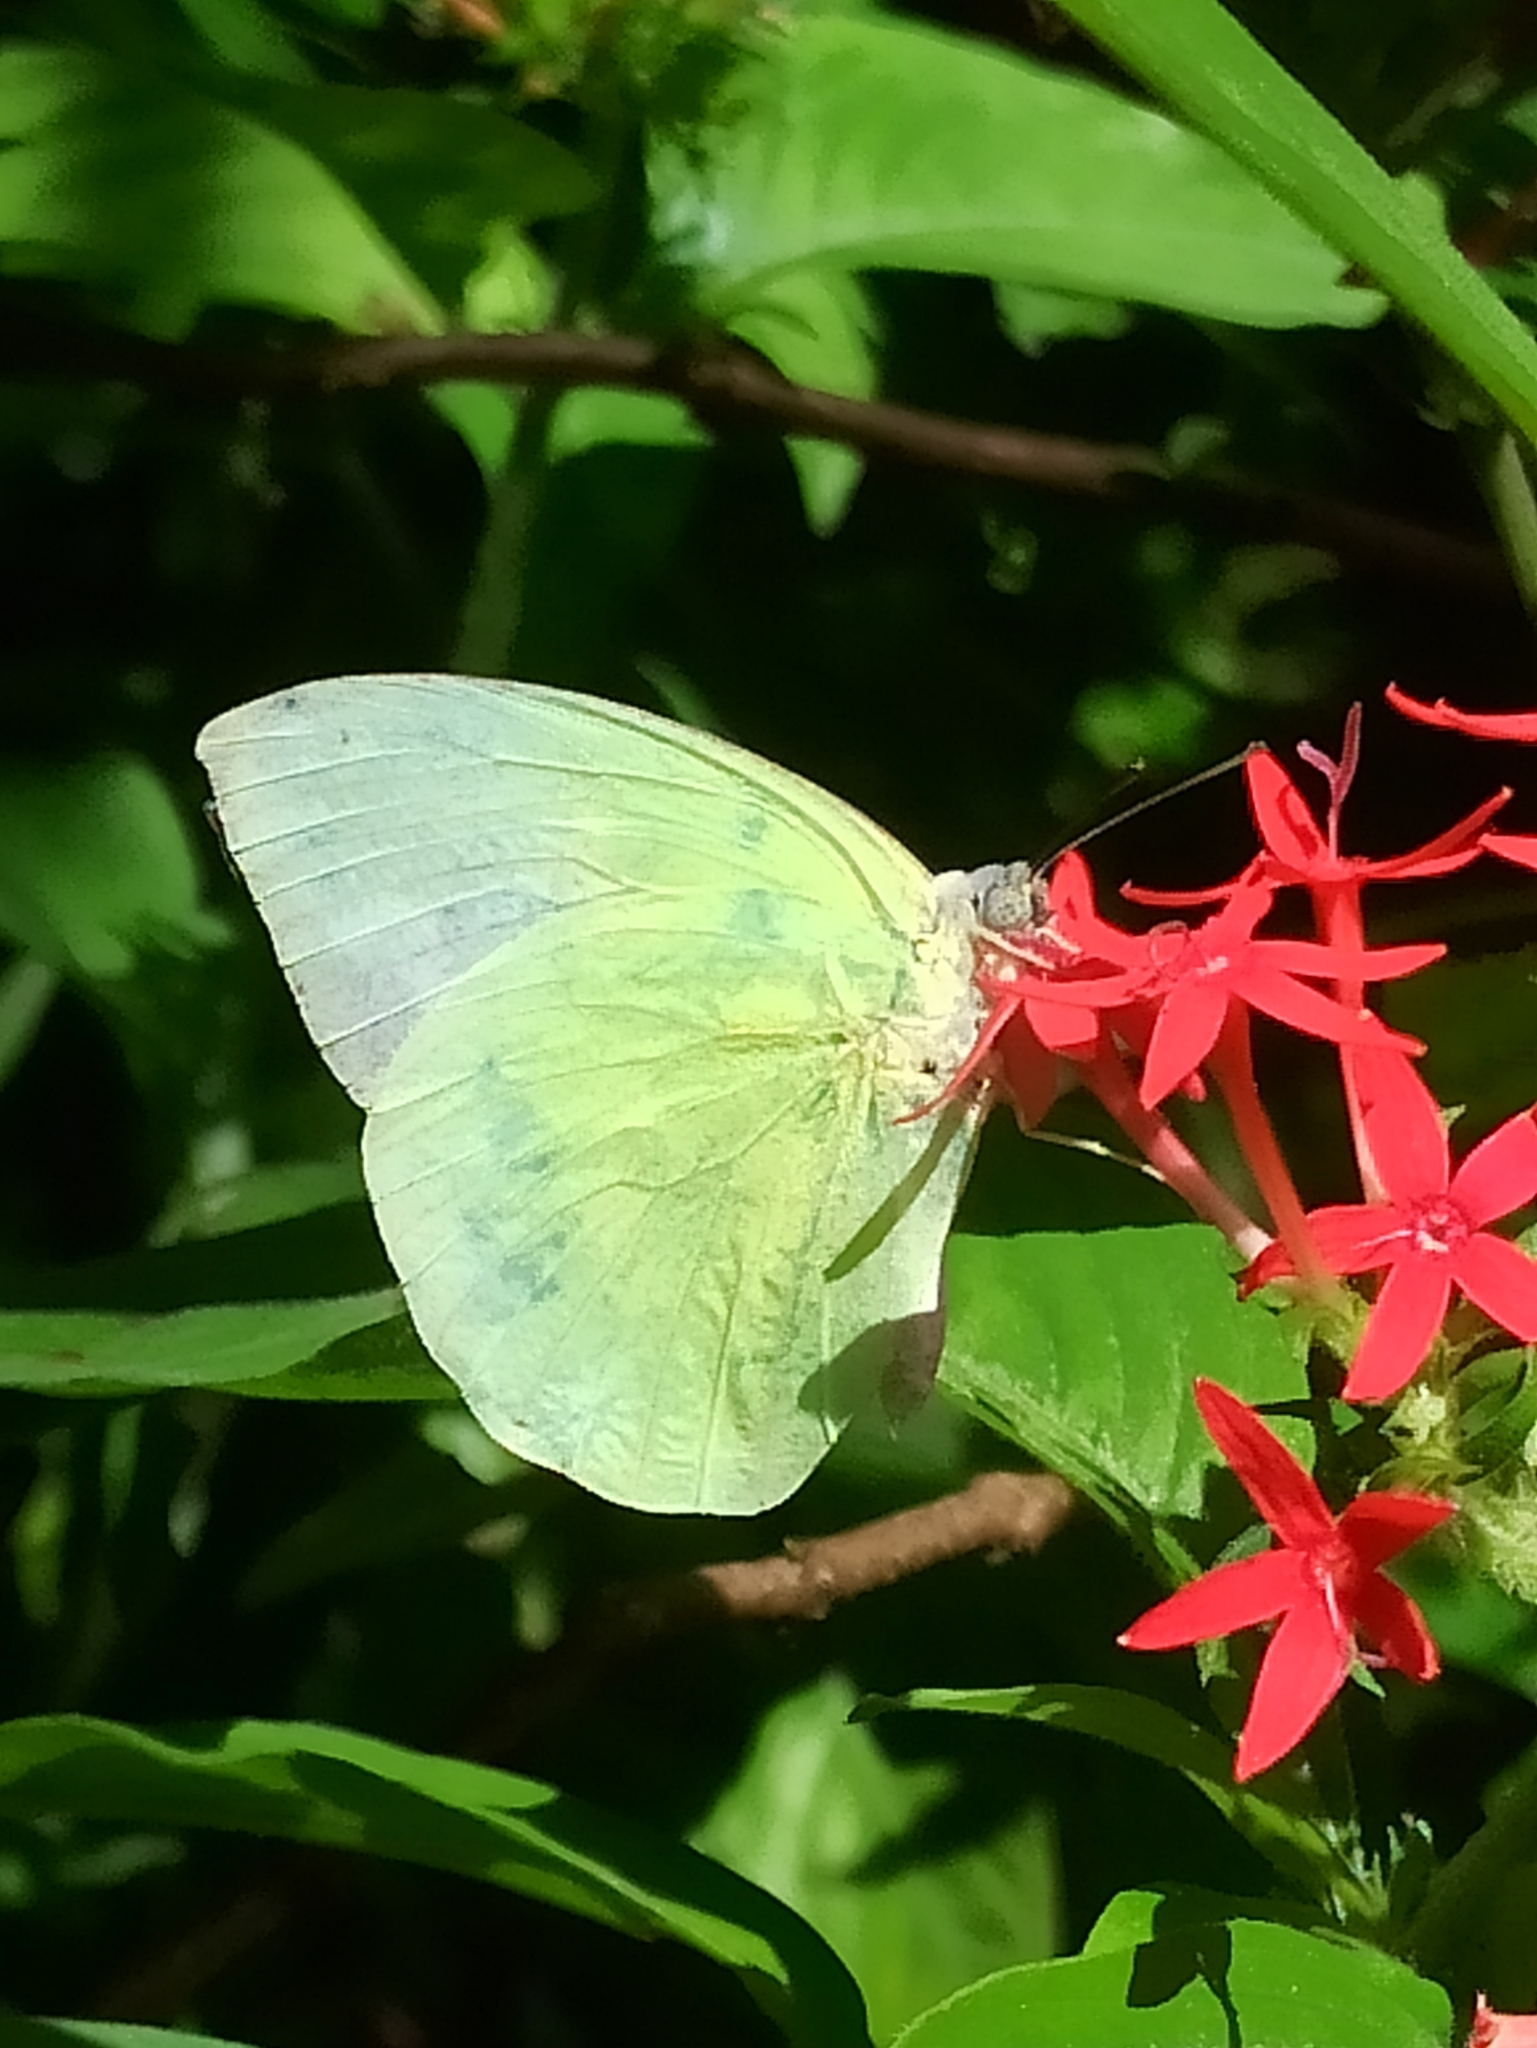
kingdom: Animalia
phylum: Arthropoda
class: Insecta
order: Lepidoptera
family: Pieridae
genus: Catopsilia
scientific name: Catopsilia pomona
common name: Common emigrant
